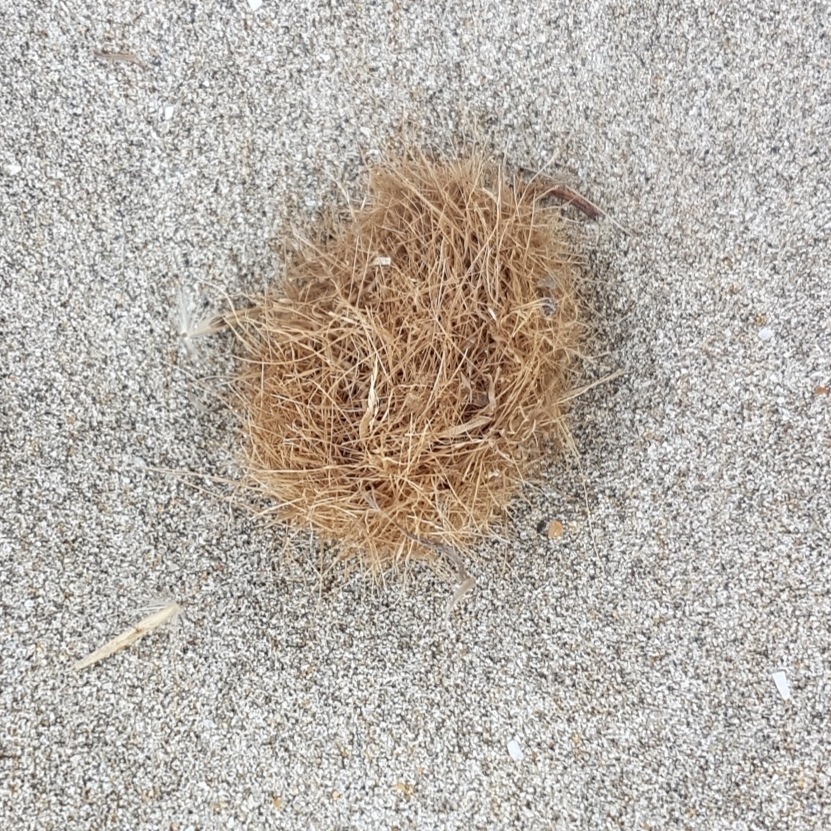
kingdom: Plantae
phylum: Tracheophyta
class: Liliopsida
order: Alismatales
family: Posidoniaceae
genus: Posidonia
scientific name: Posidonia oceanica
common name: Mediterranean tapeweed
